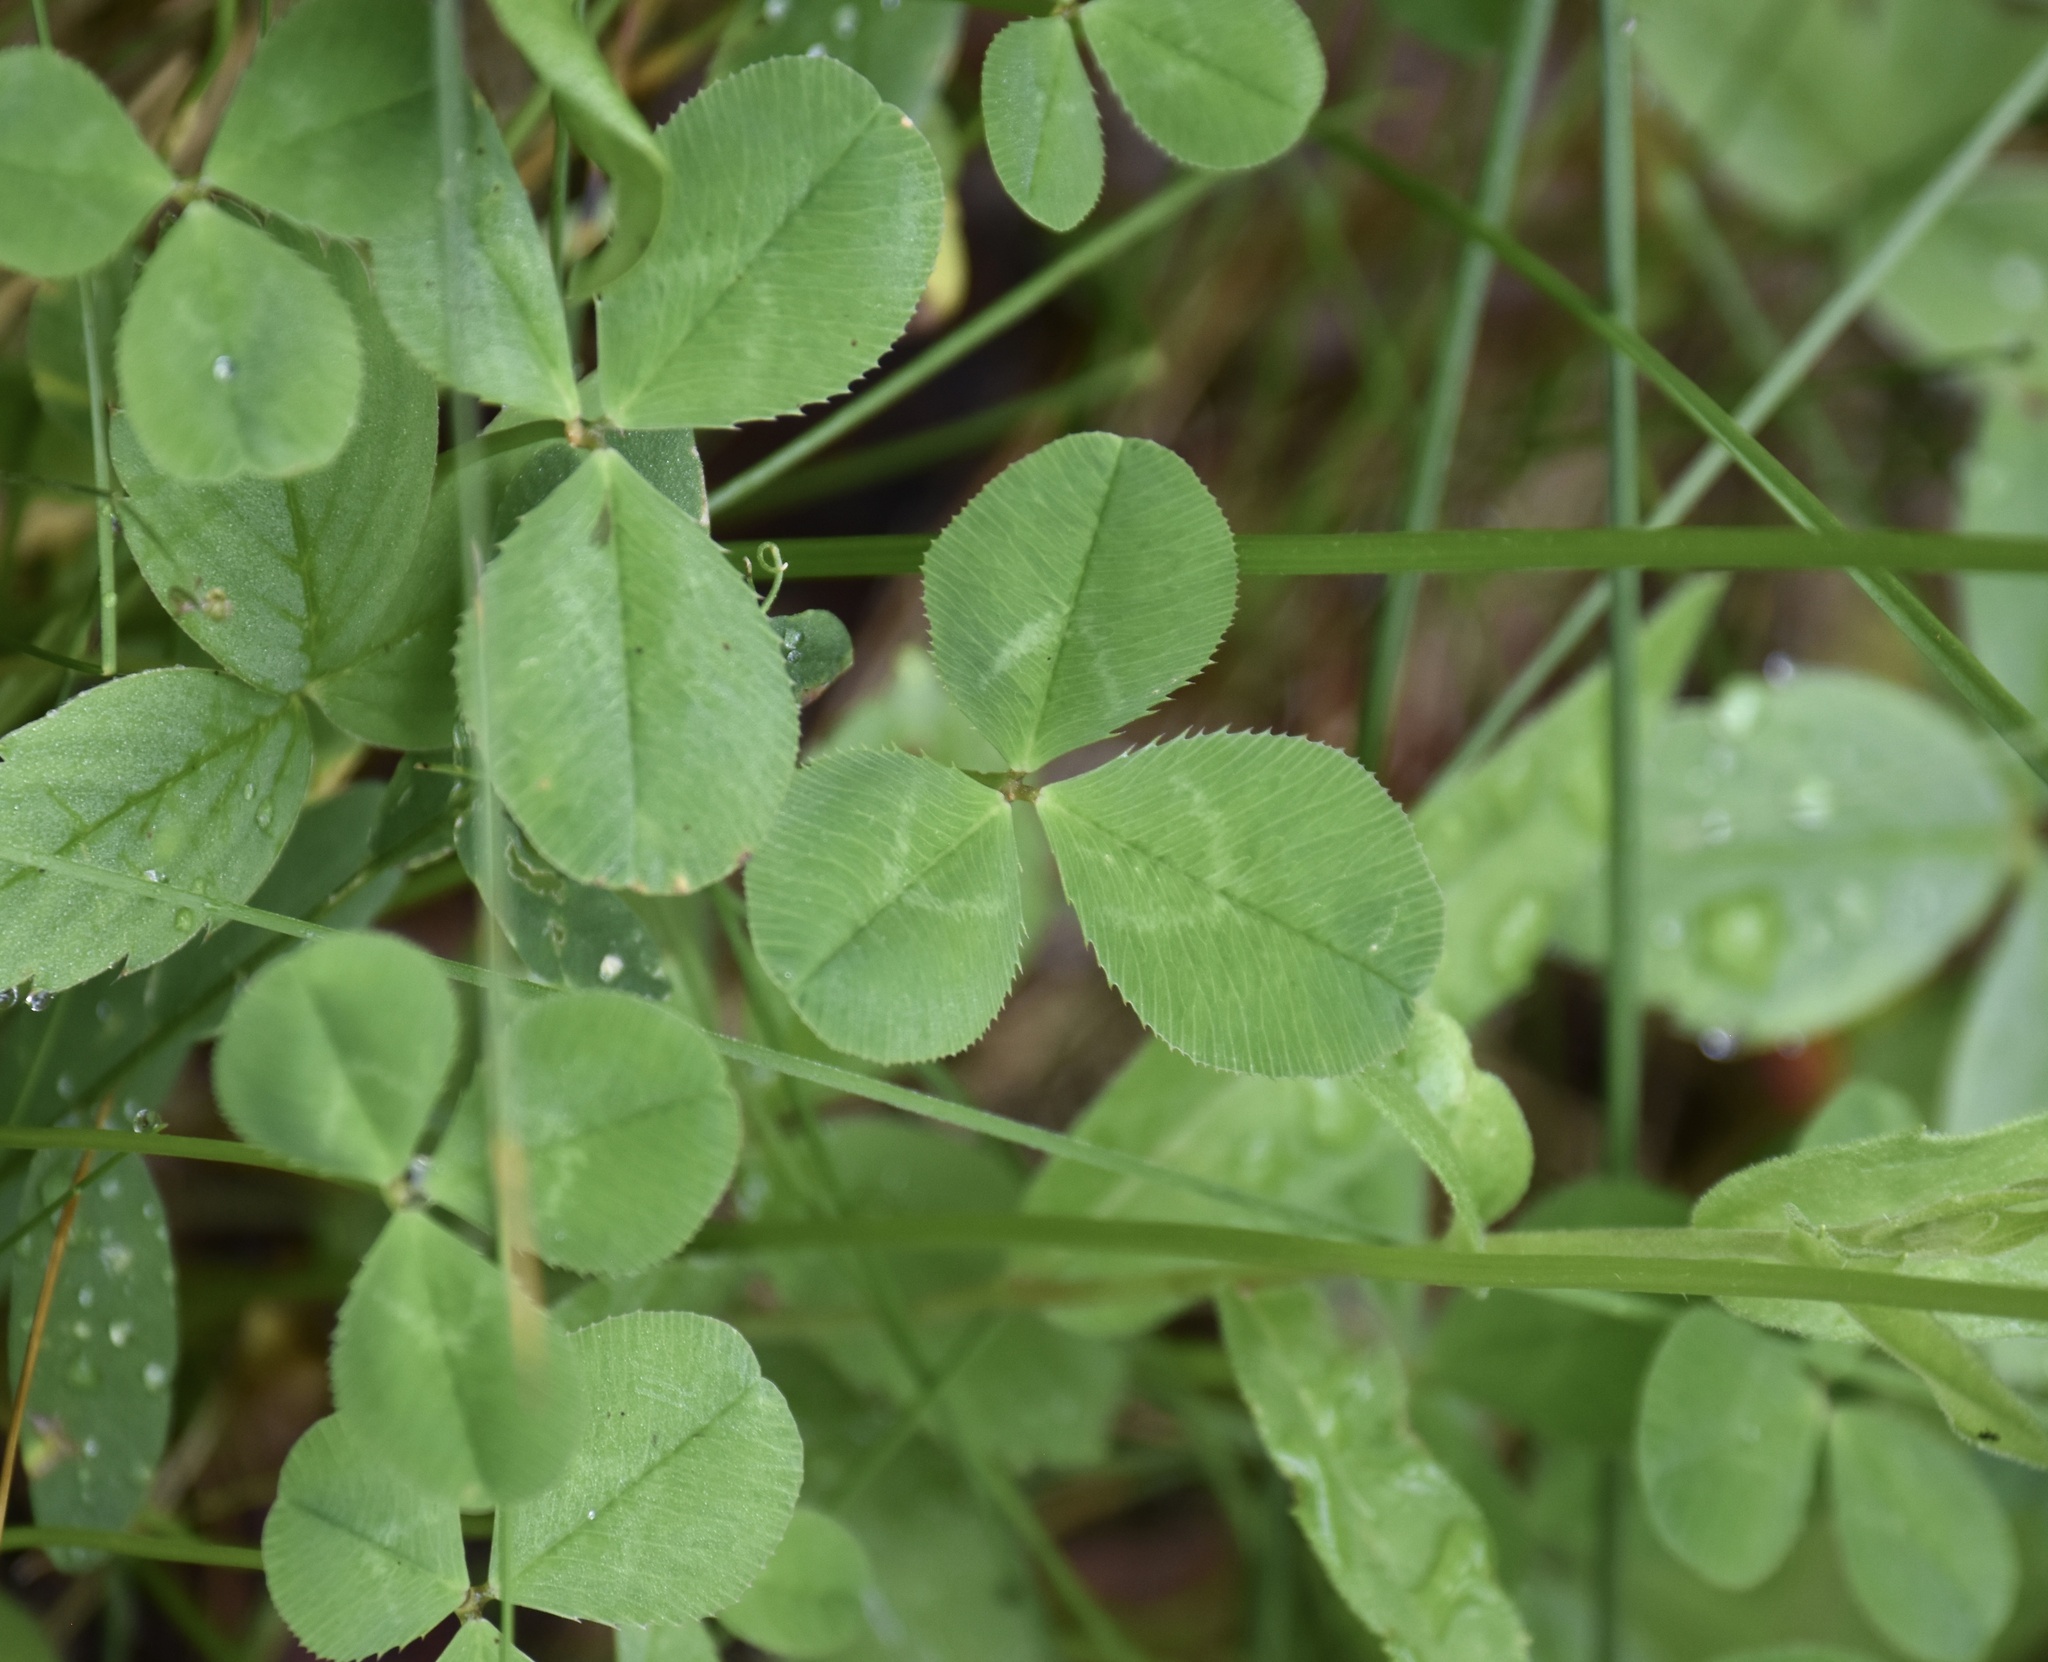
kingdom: Plantae
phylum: Tracheophyta
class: Magnoliopsida
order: Fabales
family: Fabaceae
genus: Trifolium
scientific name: Trifolium repens
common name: White clover
